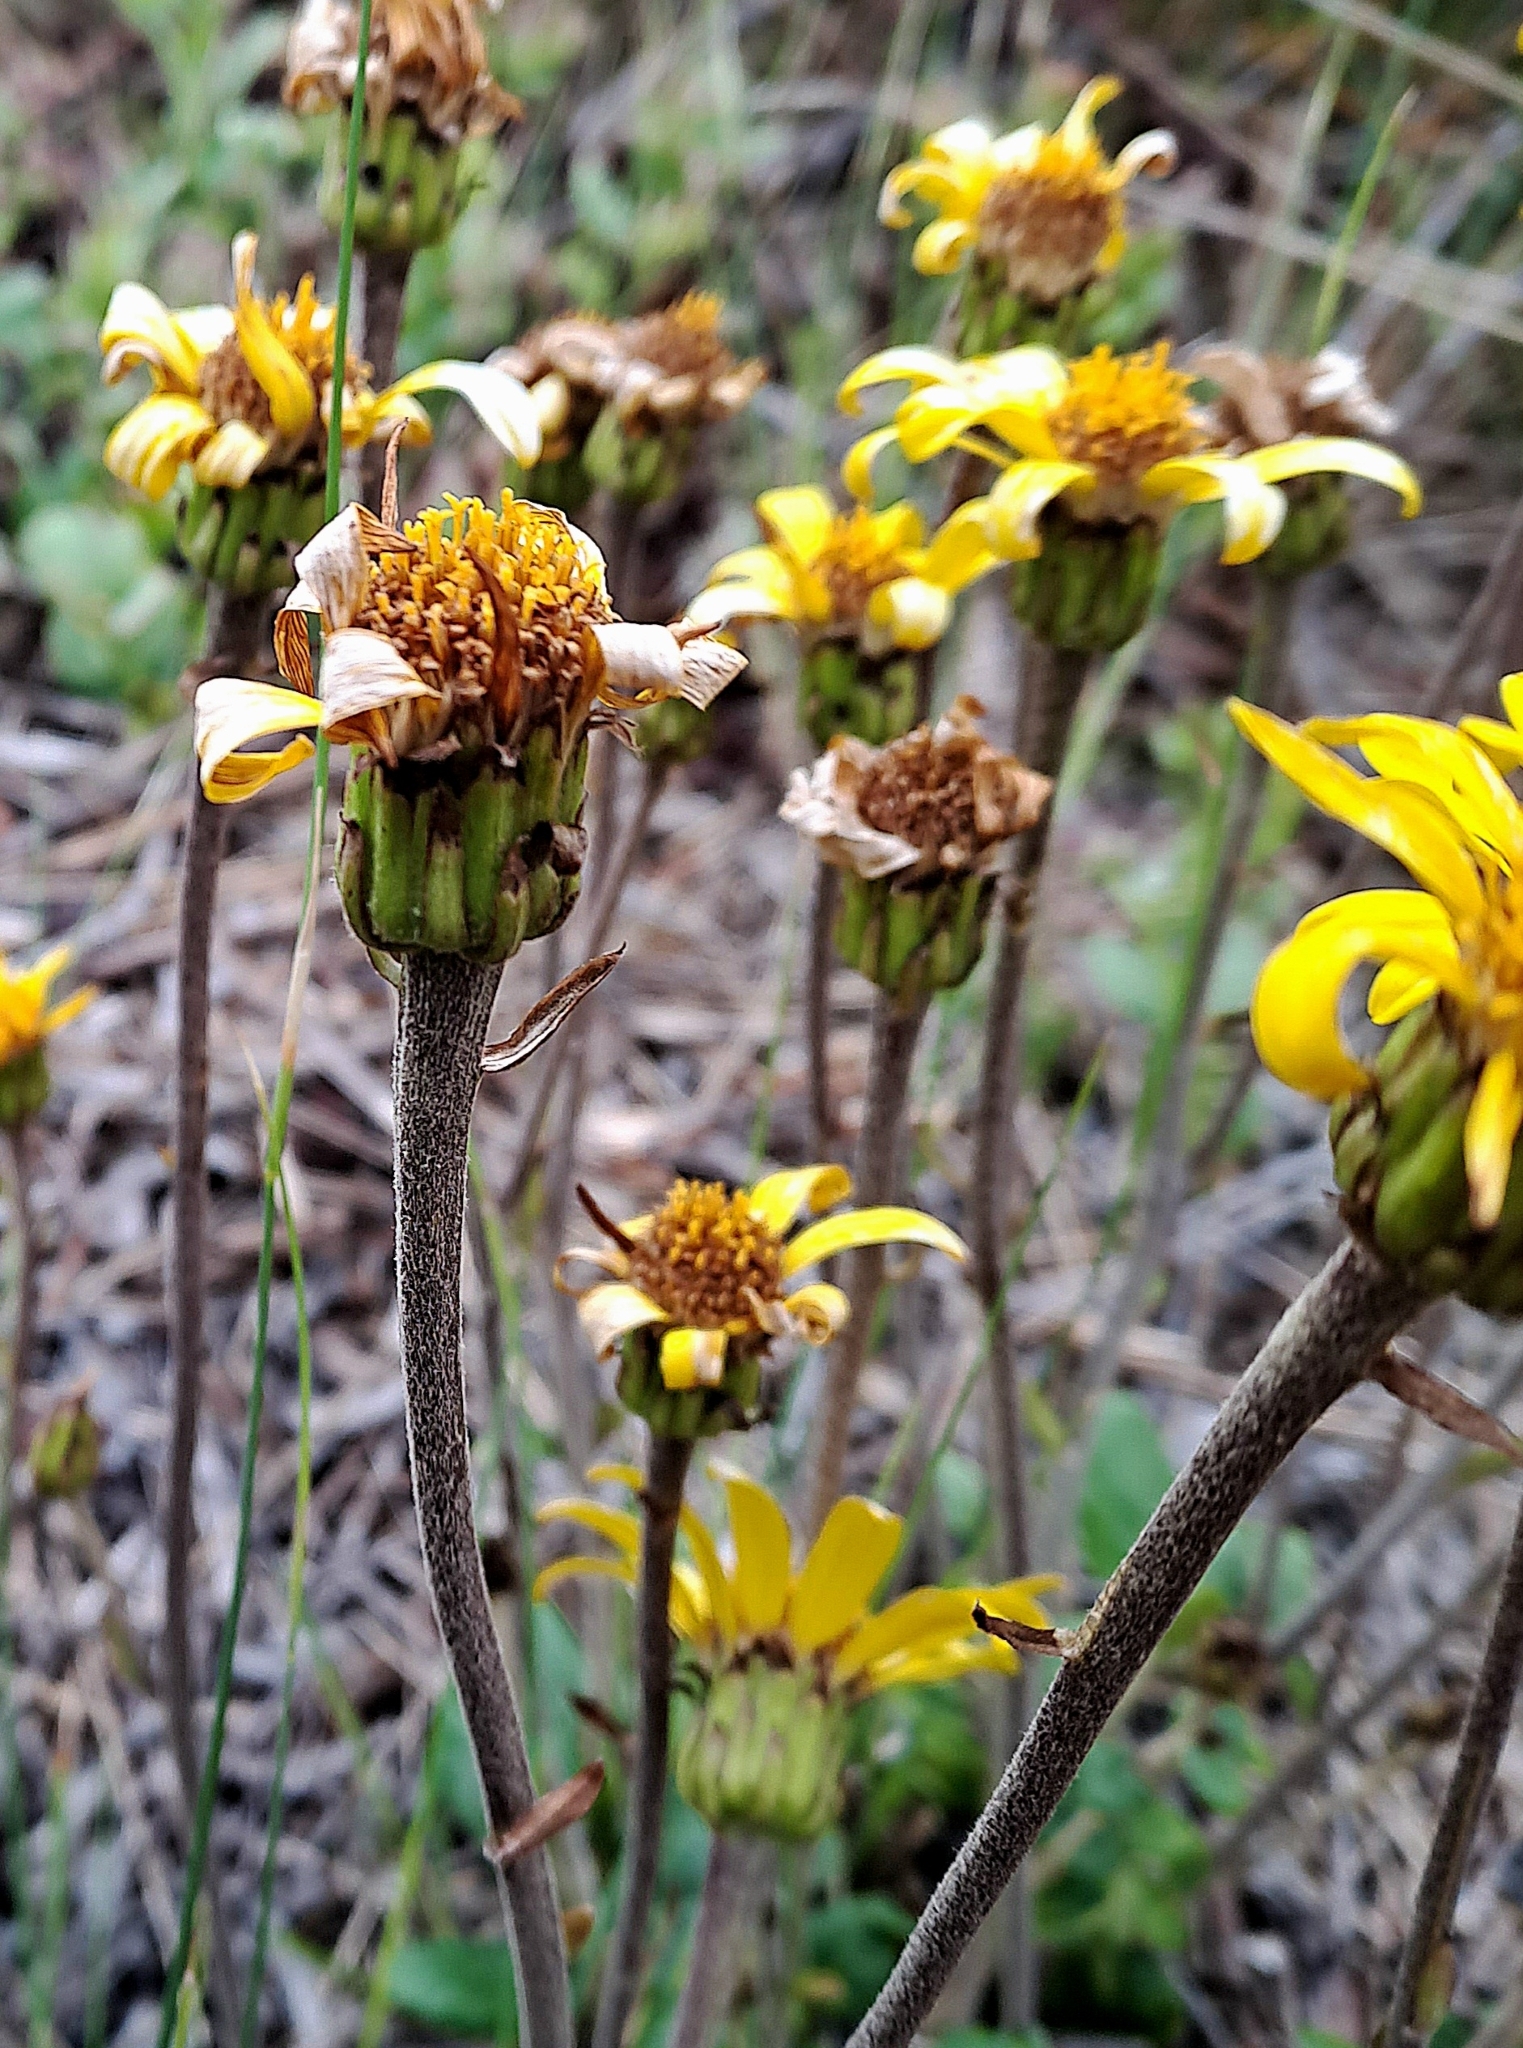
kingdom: Plantae
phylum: Tracheophyta
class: Magnoliopsida
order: Asterales
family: Asteraceae
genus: Capelio
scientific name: Capelio tabularis
